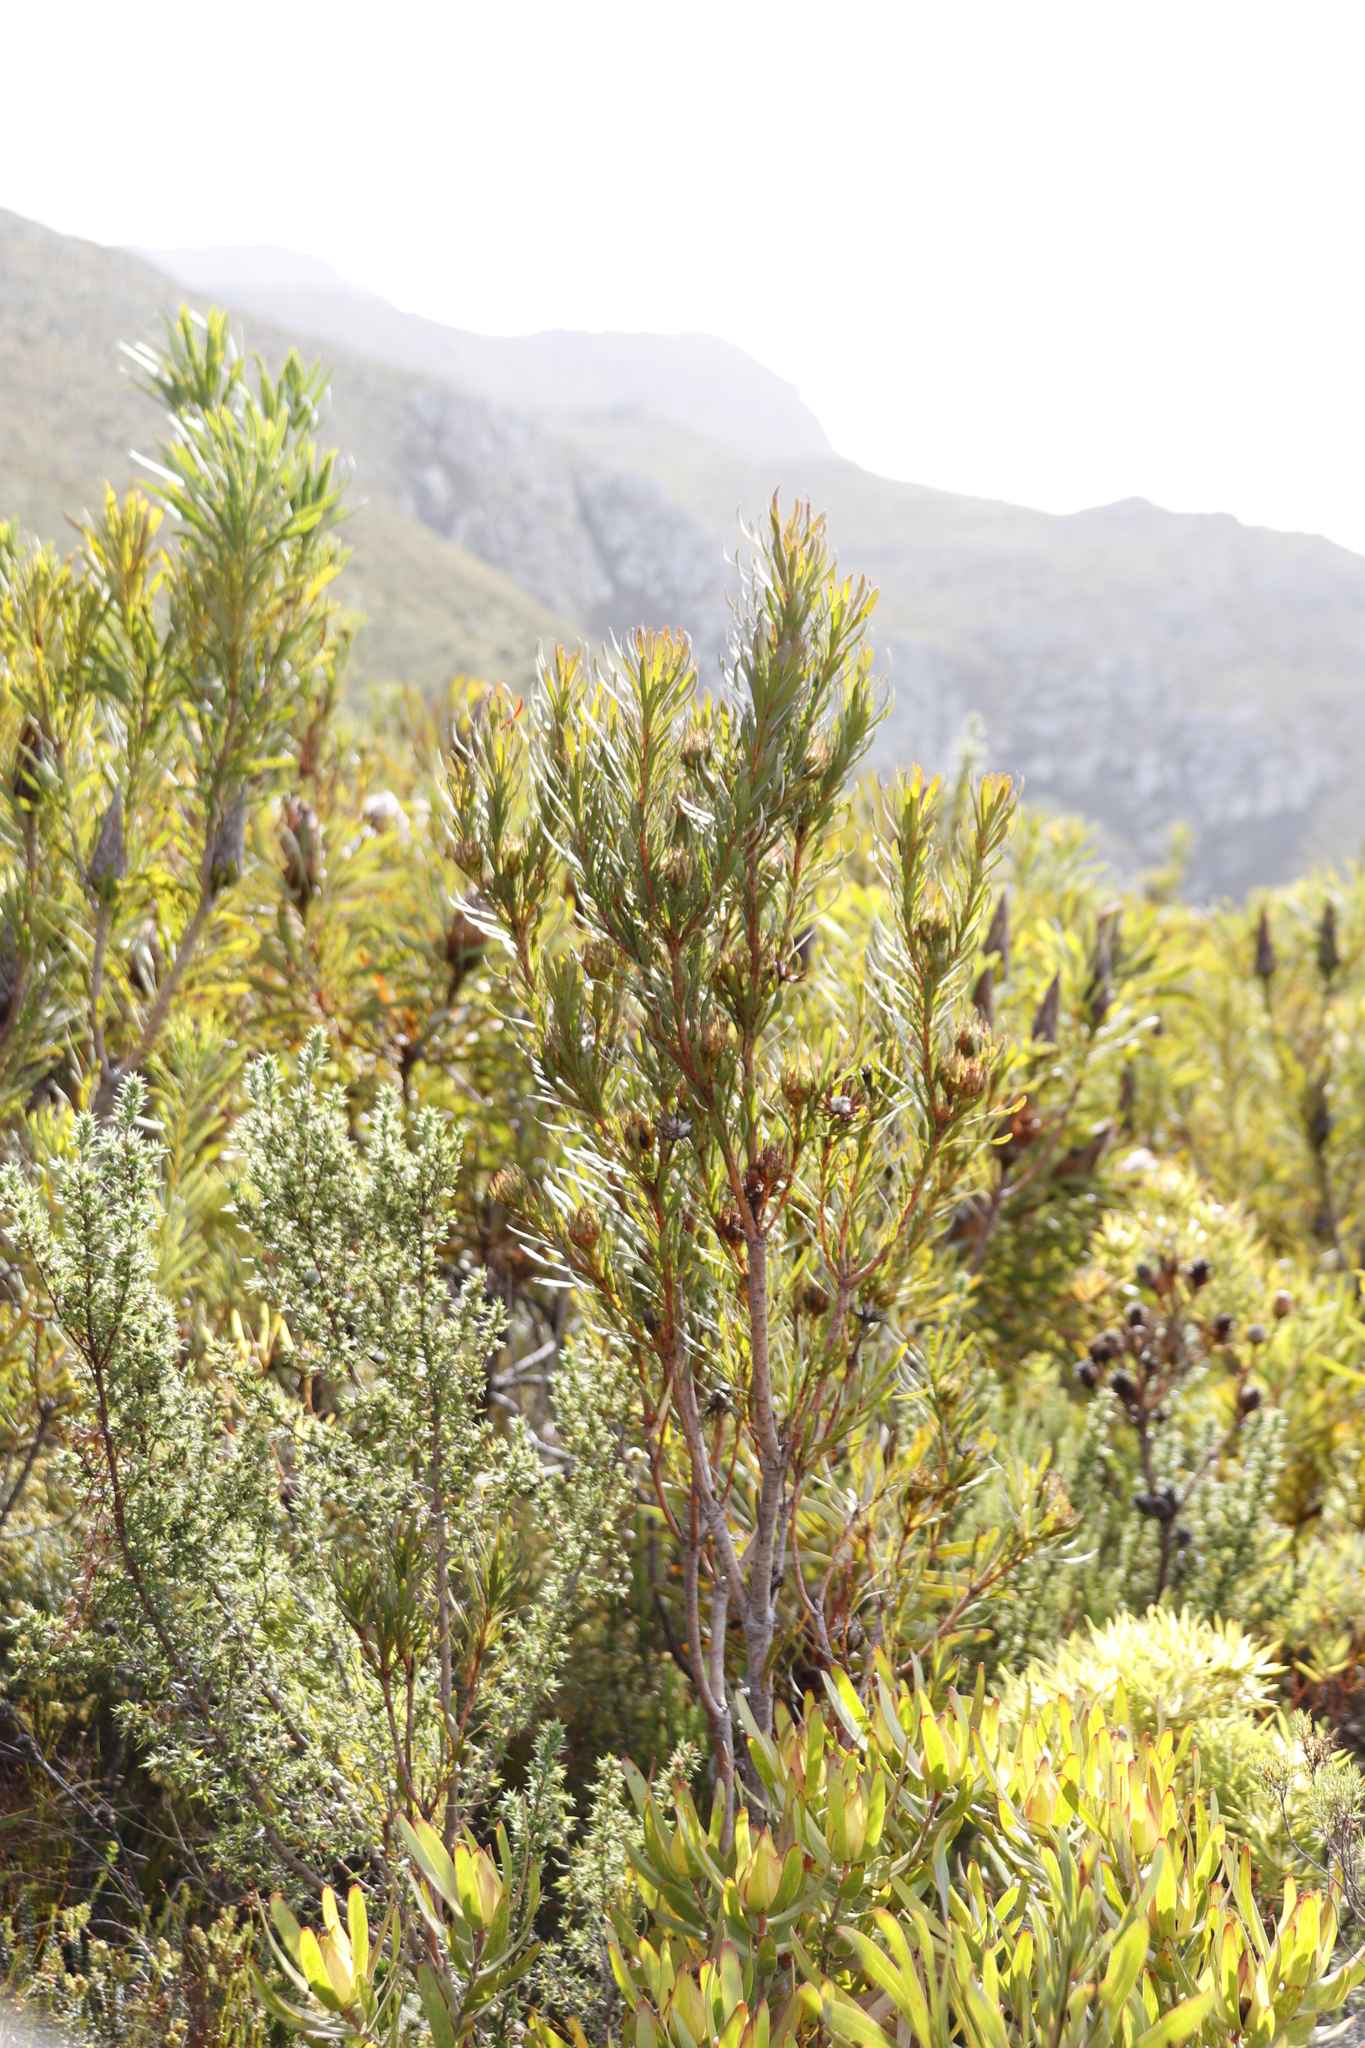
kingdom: Plantae
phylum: Tracheophyta
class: Magnoliopsida
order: Proteales
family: Proteaceae
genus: Aulax
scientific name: Aulax umbellata
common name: Broad-leaf featherbush
